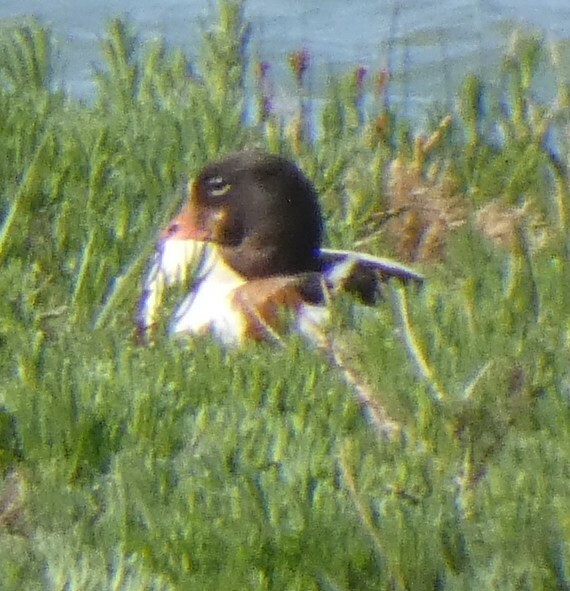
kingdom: Animalia
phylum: Chordata
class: Aves
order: Anseriformes
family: Anatidae
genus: Tadorna
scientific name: Tadorna tadorna
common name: Common shelduck
